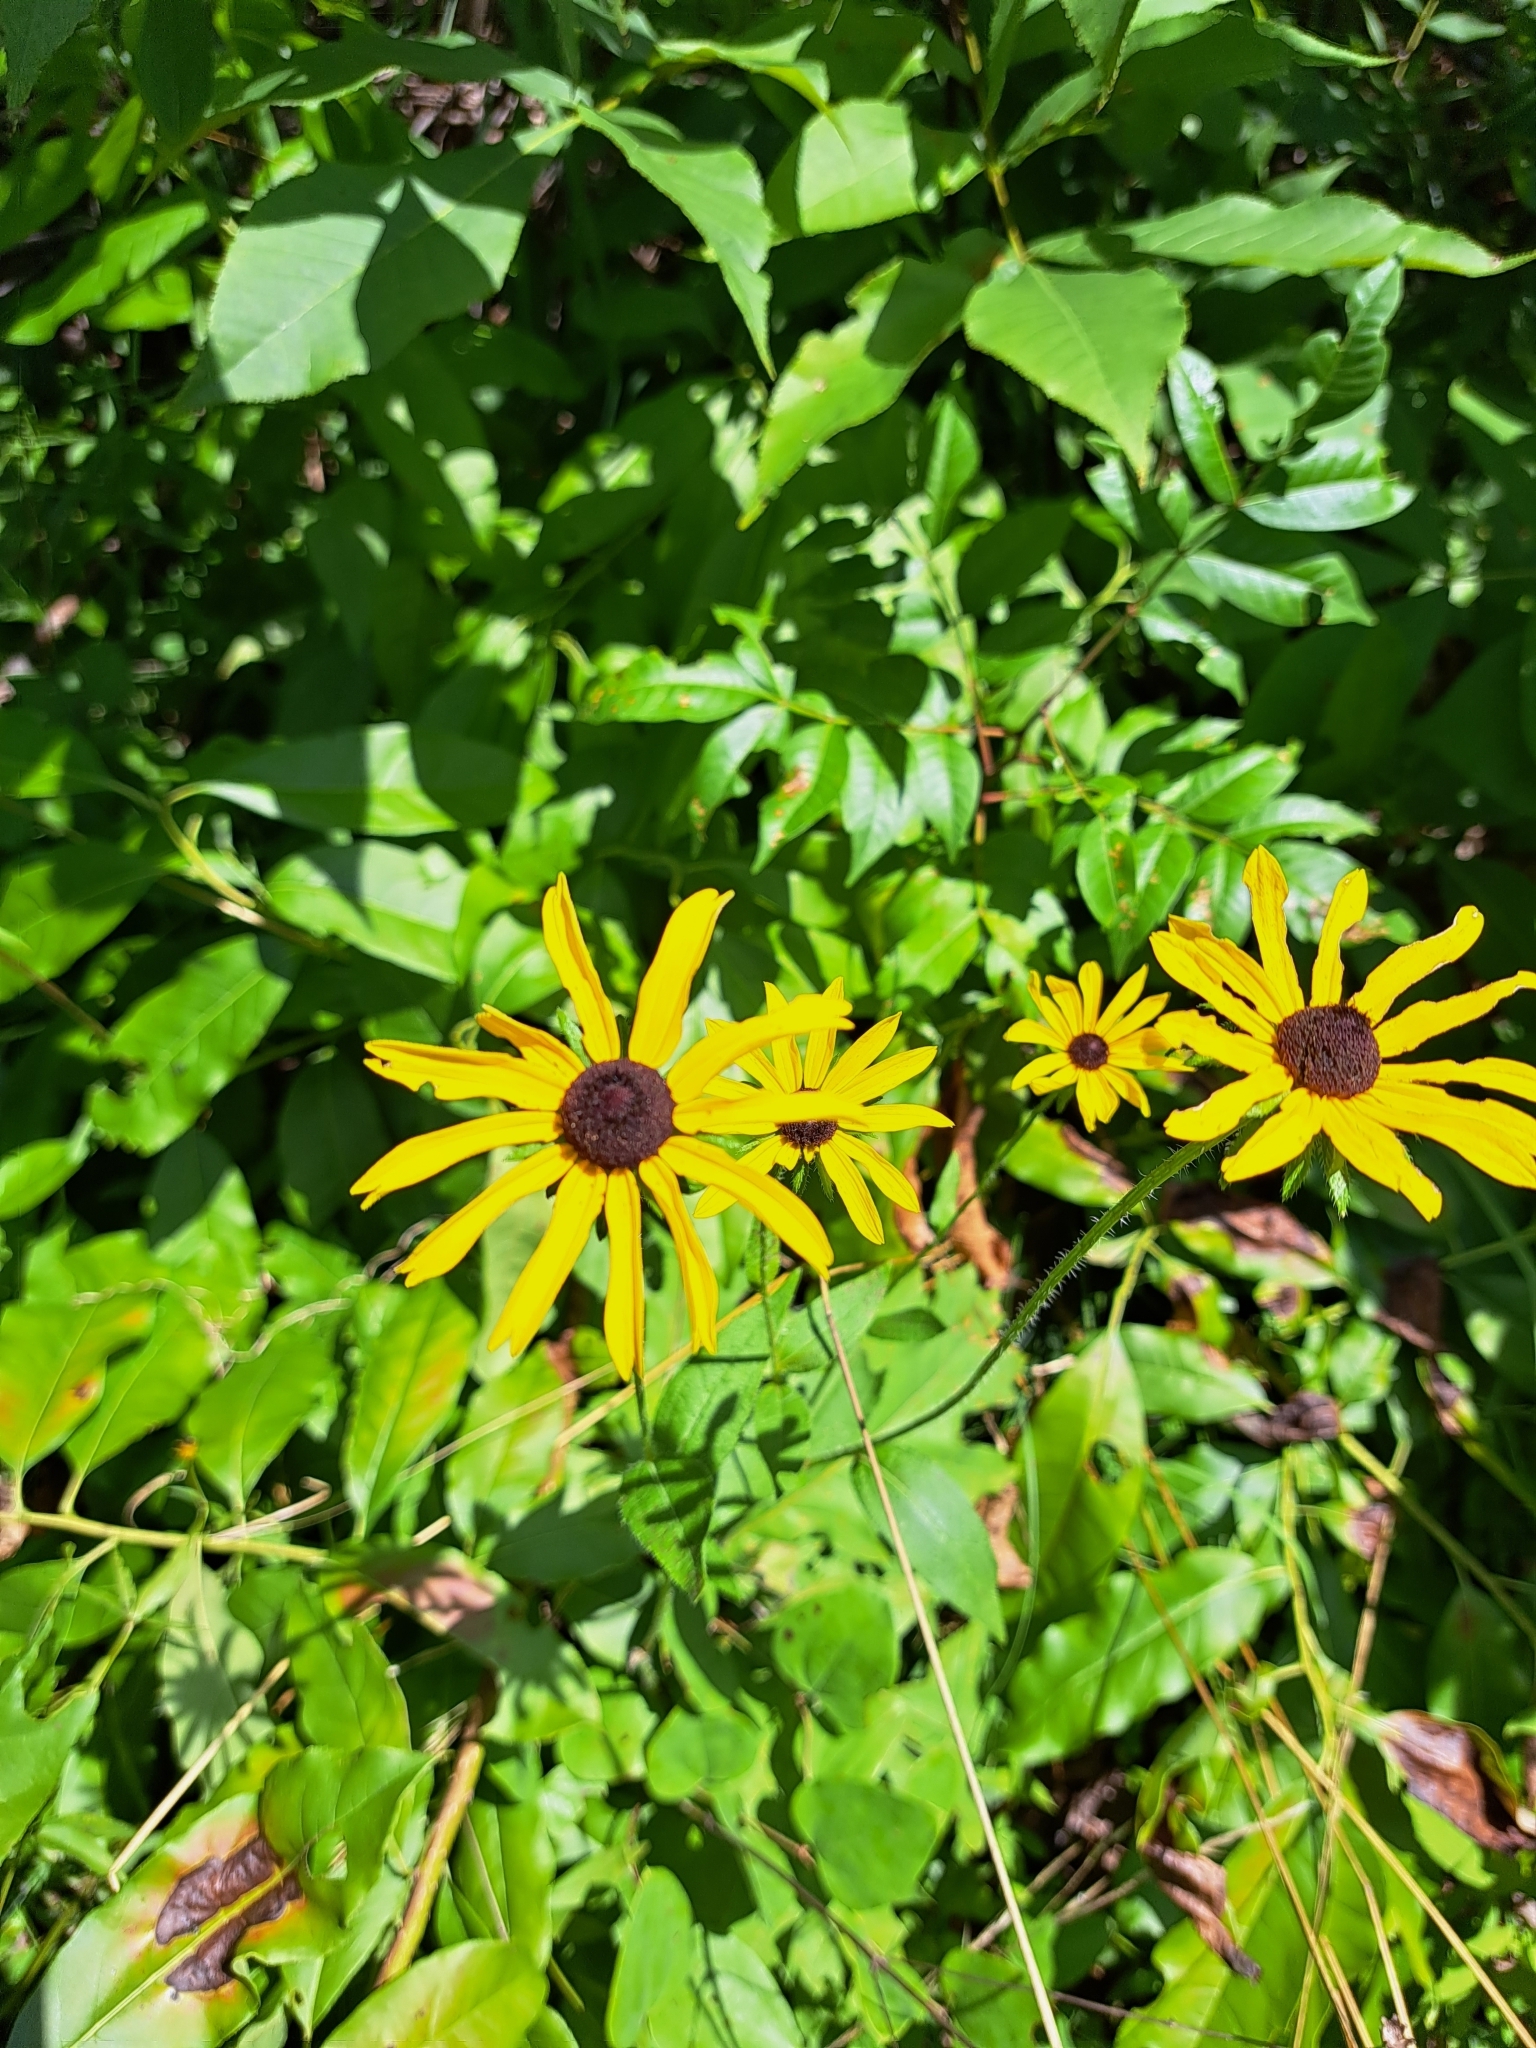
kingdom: Plantae
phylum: Tracheophyta
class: Magnoliopsida
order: Asterales
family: Asteraceae
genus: Rudbeckia
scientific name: Rudbeckia hirta
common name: Black-eyed-susan
